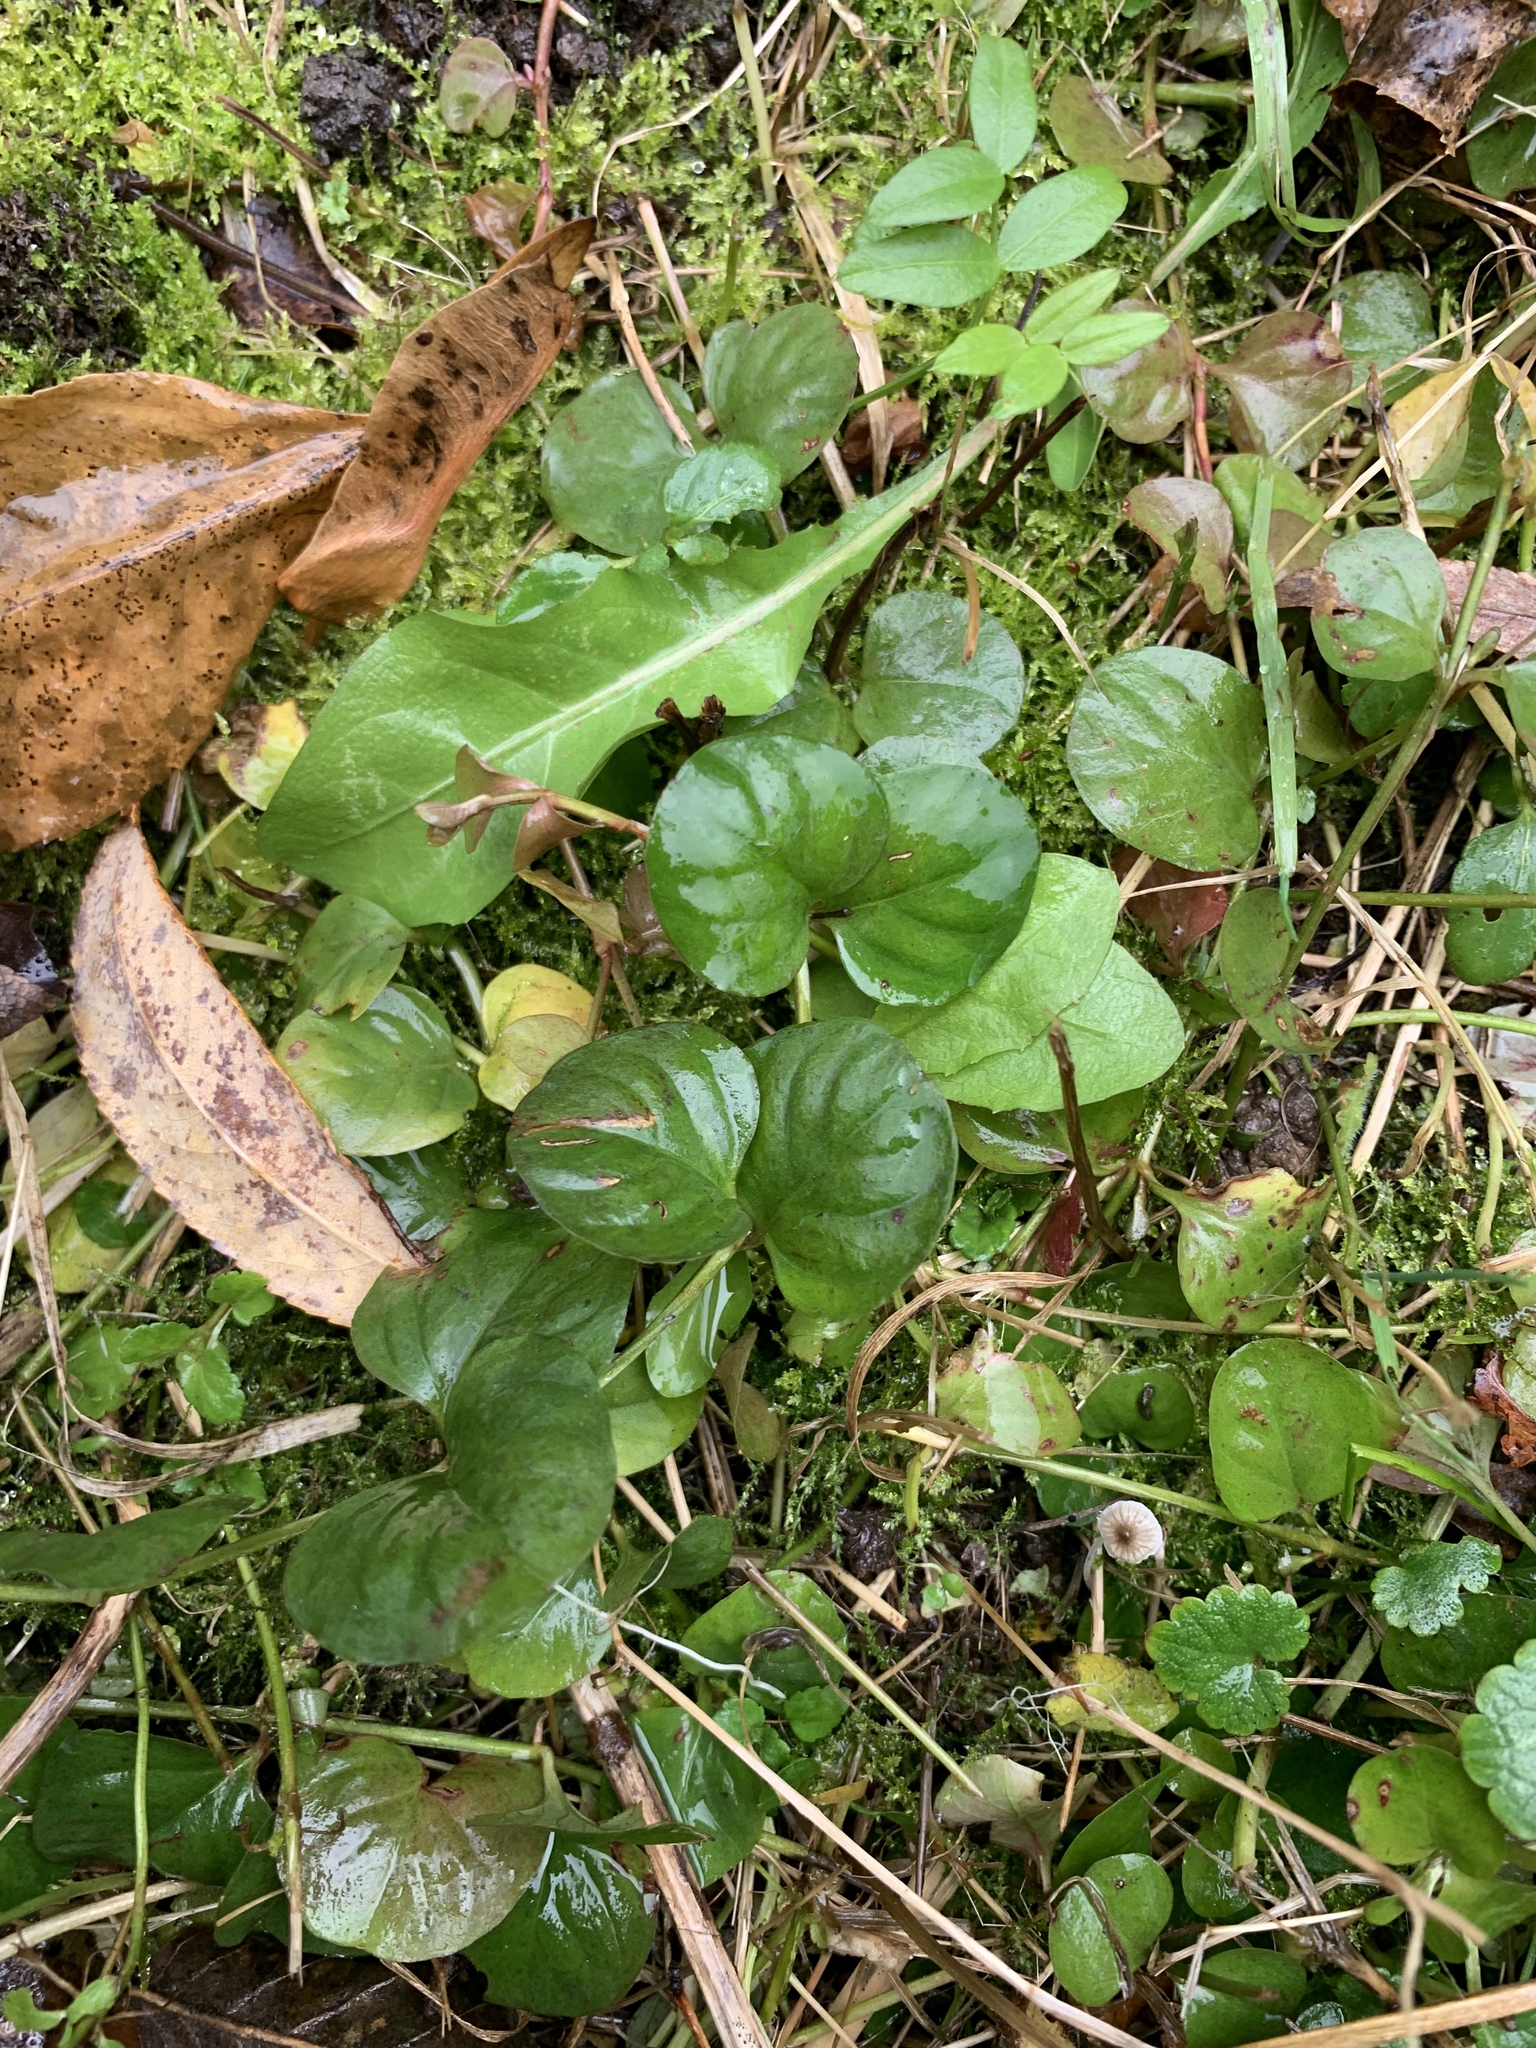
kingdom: Plantae
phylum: Tracheophyta
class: Magnoliopsida
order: Ericales
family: Primulaceae
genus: Lysimachia
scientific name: Lysimachia nummularia
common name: Moneywort
